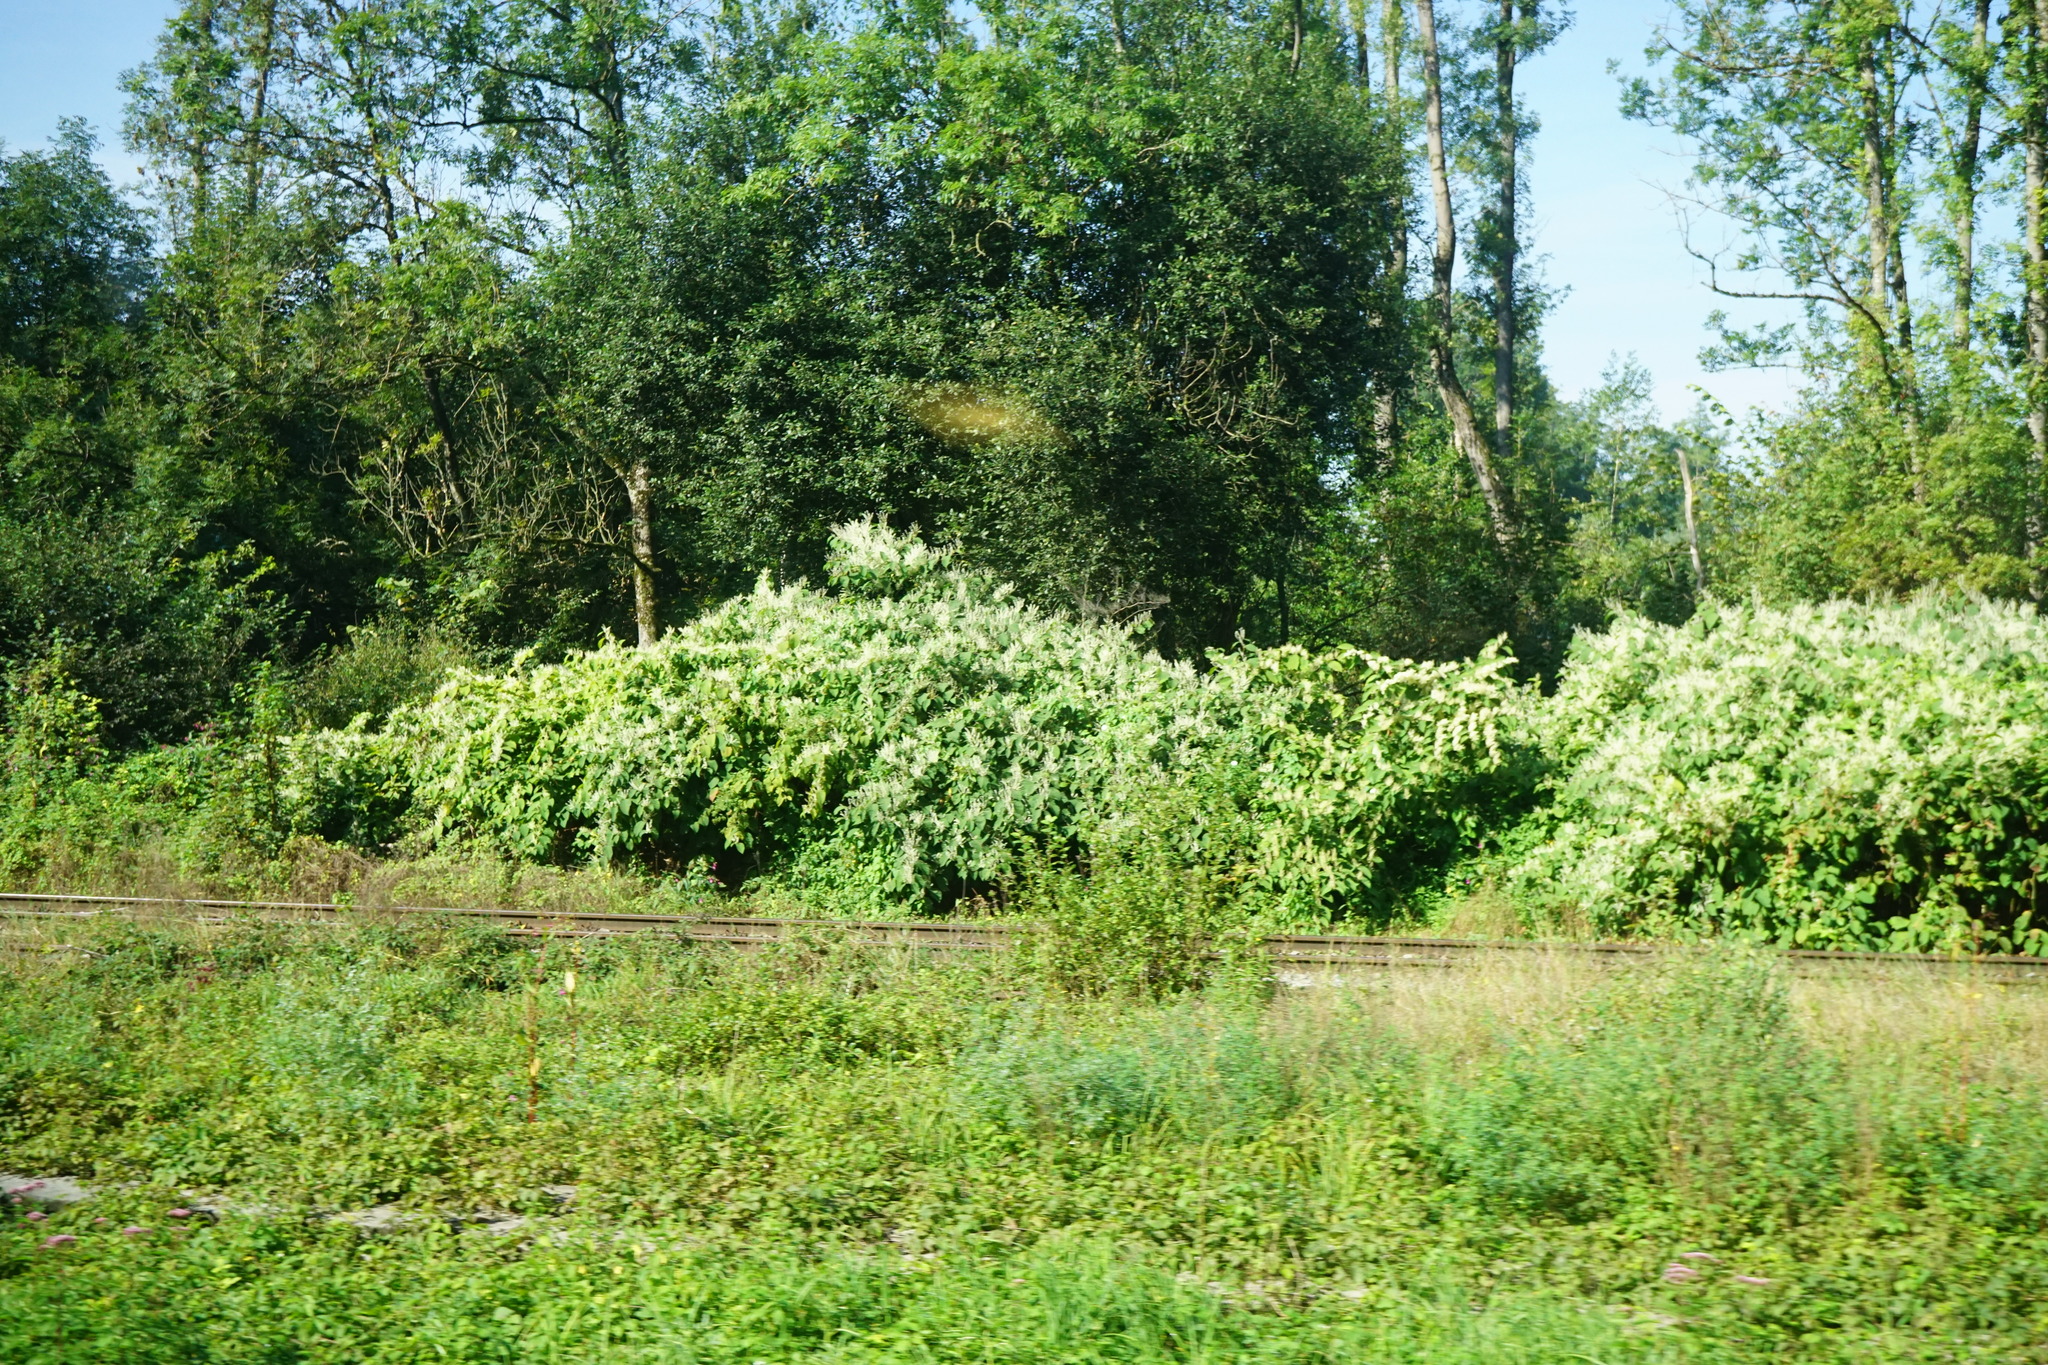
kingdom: Plantae
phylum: Tracheophyta
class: Magnoliopsida
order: Caryophyllales
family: Polygonaceae
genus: Reynoutria
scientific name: Reynoutria bohemica
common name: Bohemian knotweed
